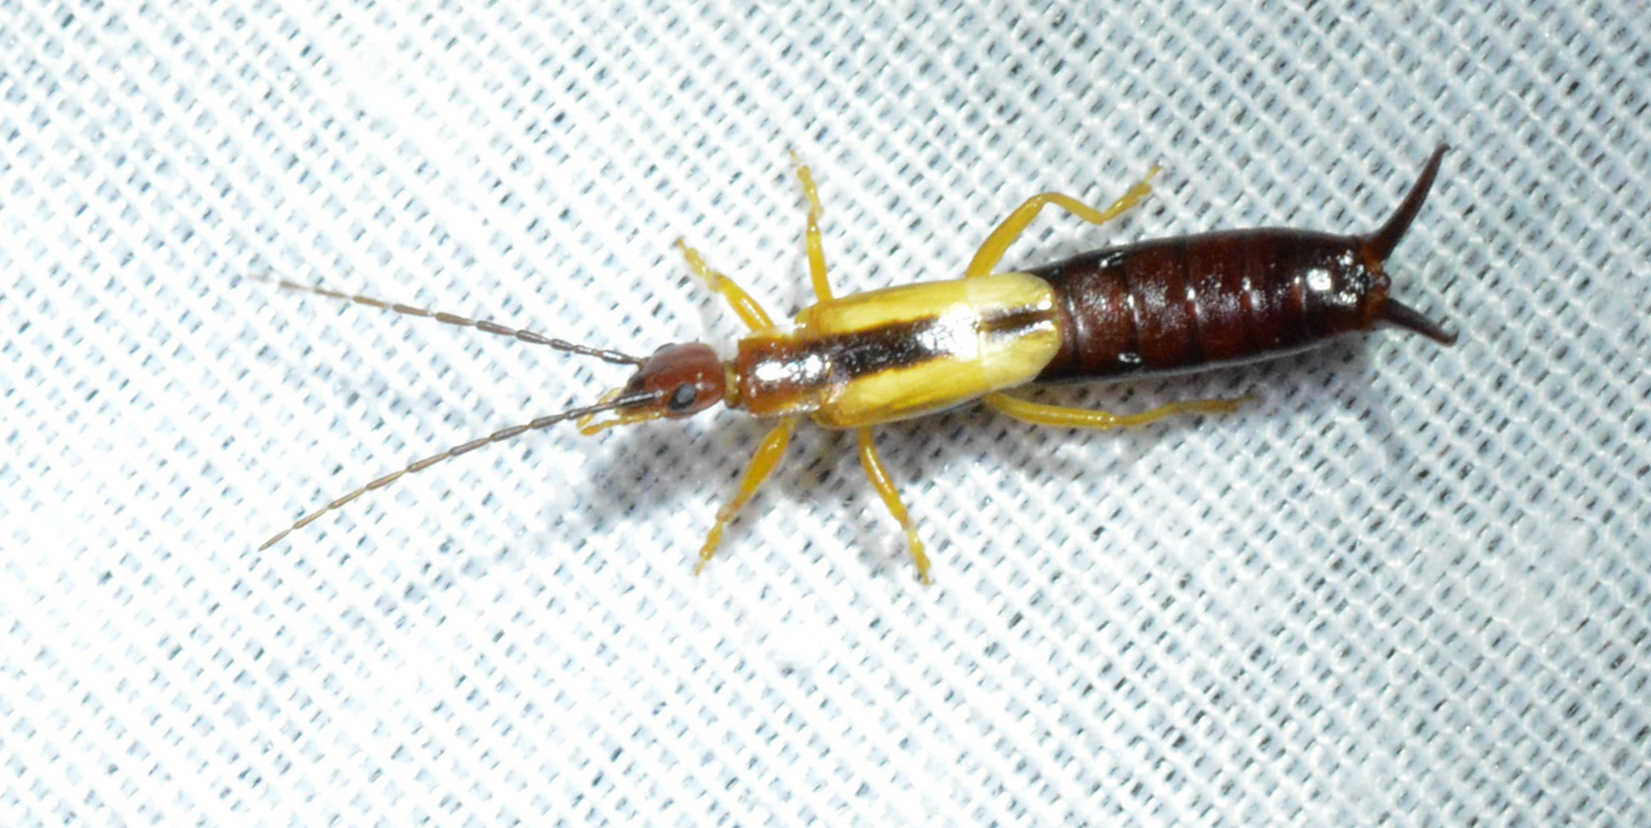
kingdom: Animalia
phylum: Arthropoda
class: Insecta
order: Dermaptera
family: Forficulidae
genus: Doru
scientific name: Doru taeniatum
